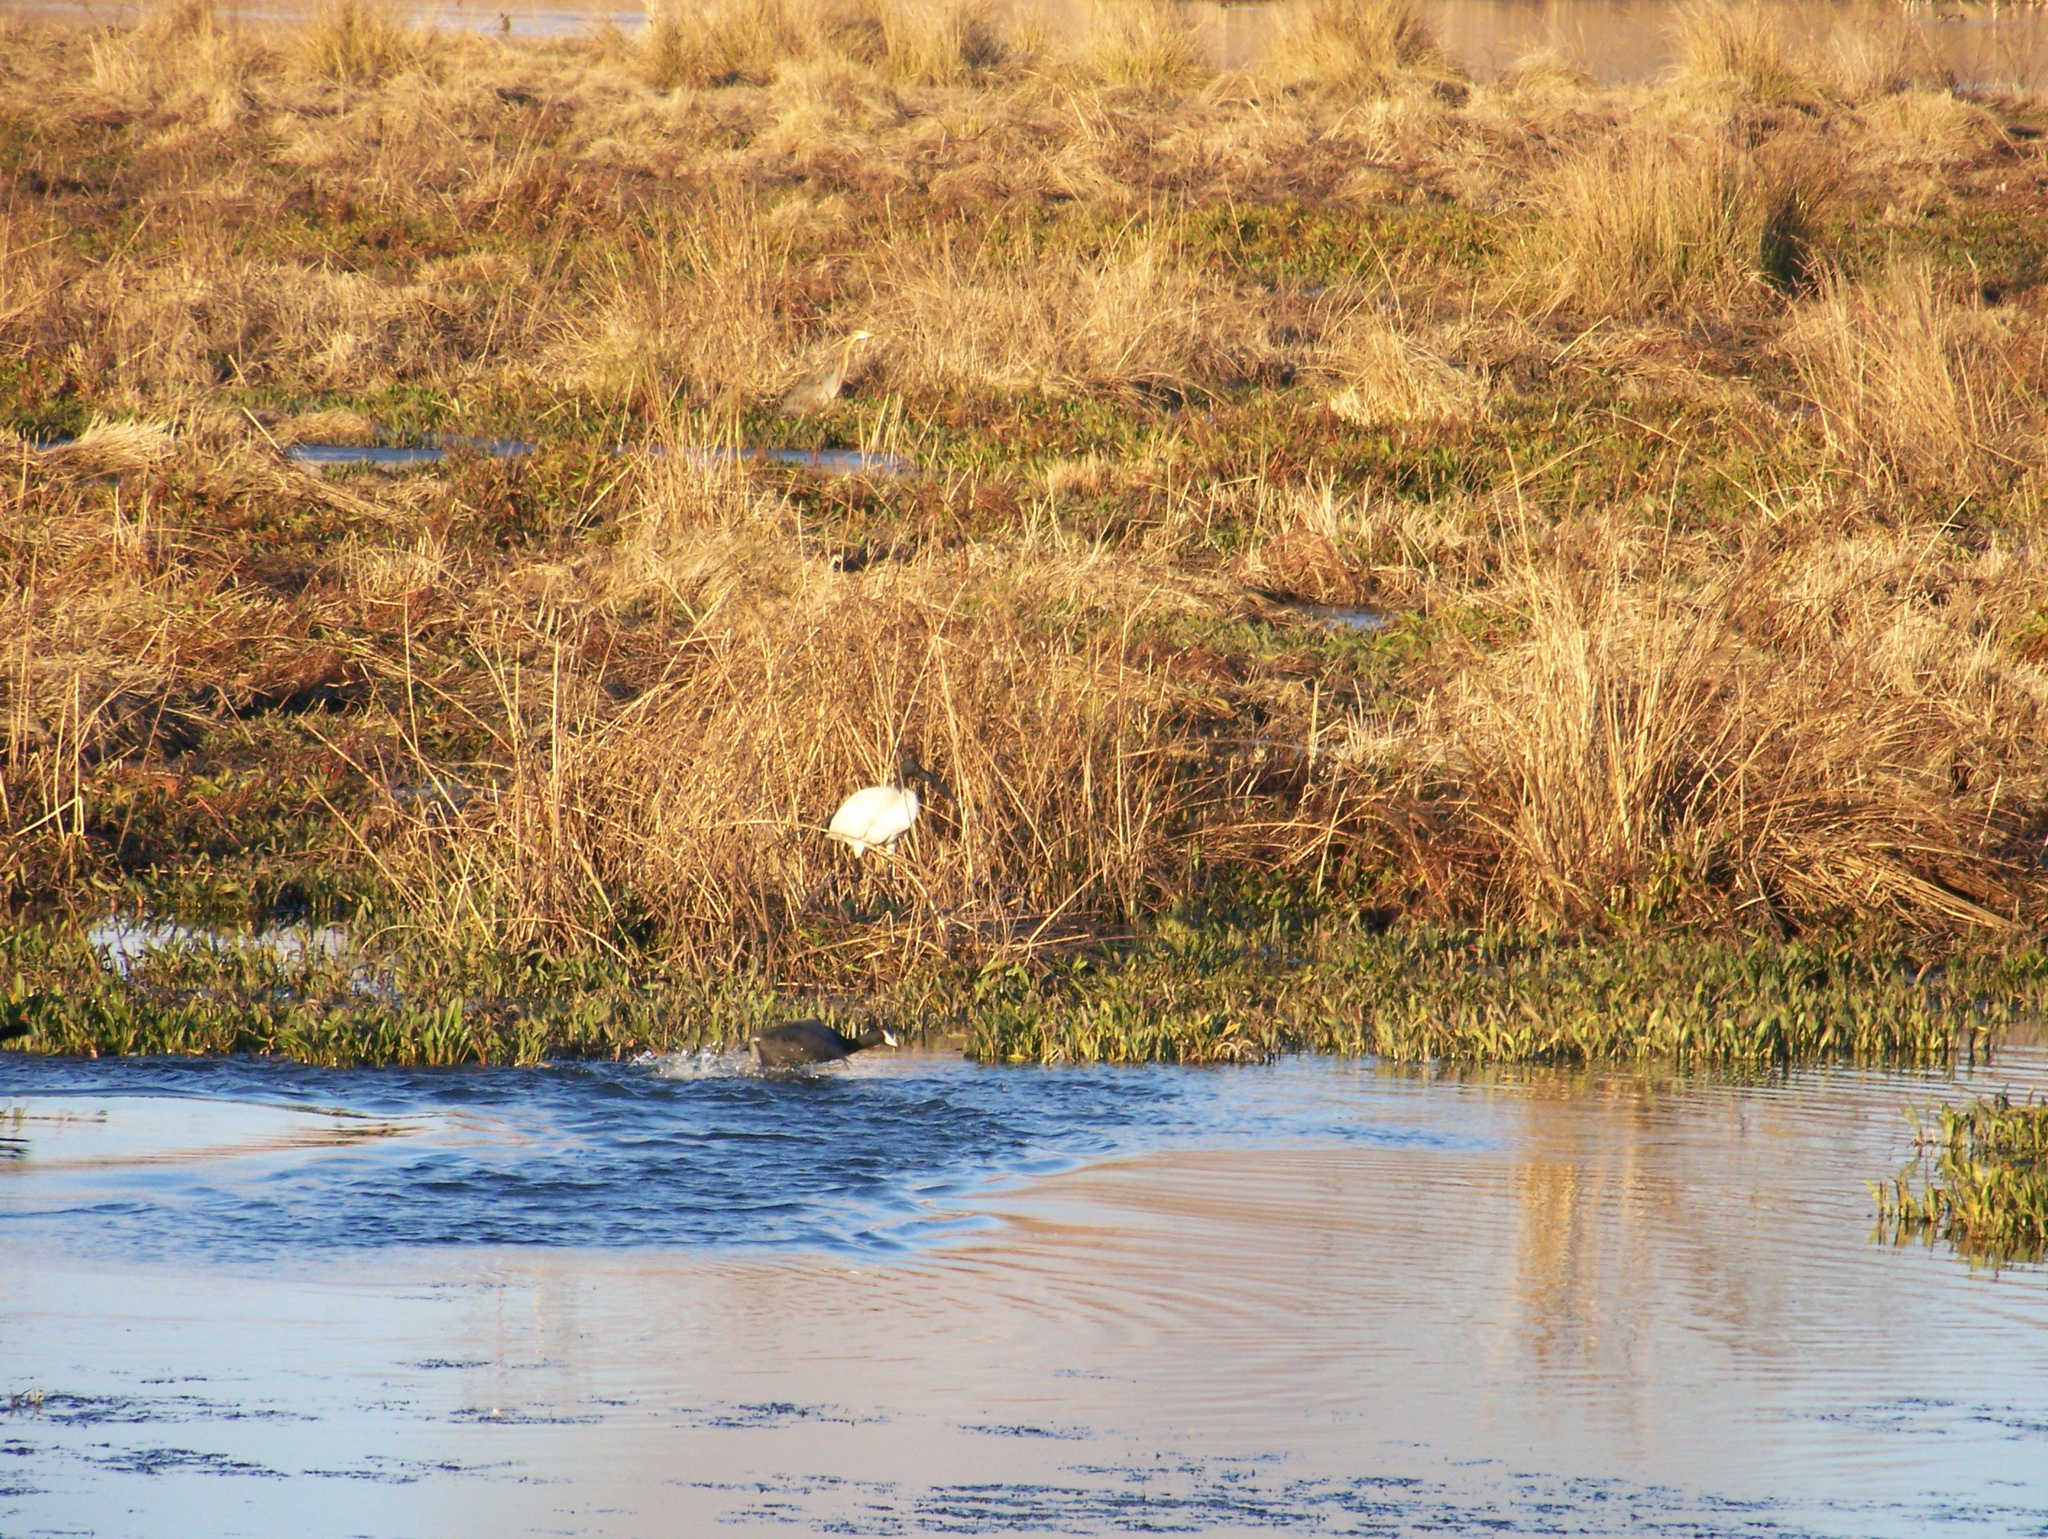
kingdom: Animalia
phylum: Chordata
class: Aves
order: Pelecaniformes
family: Threskiornithidae
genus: Threskiornis
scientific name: Threskiornis aethiopicus
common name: Sacred ibis
